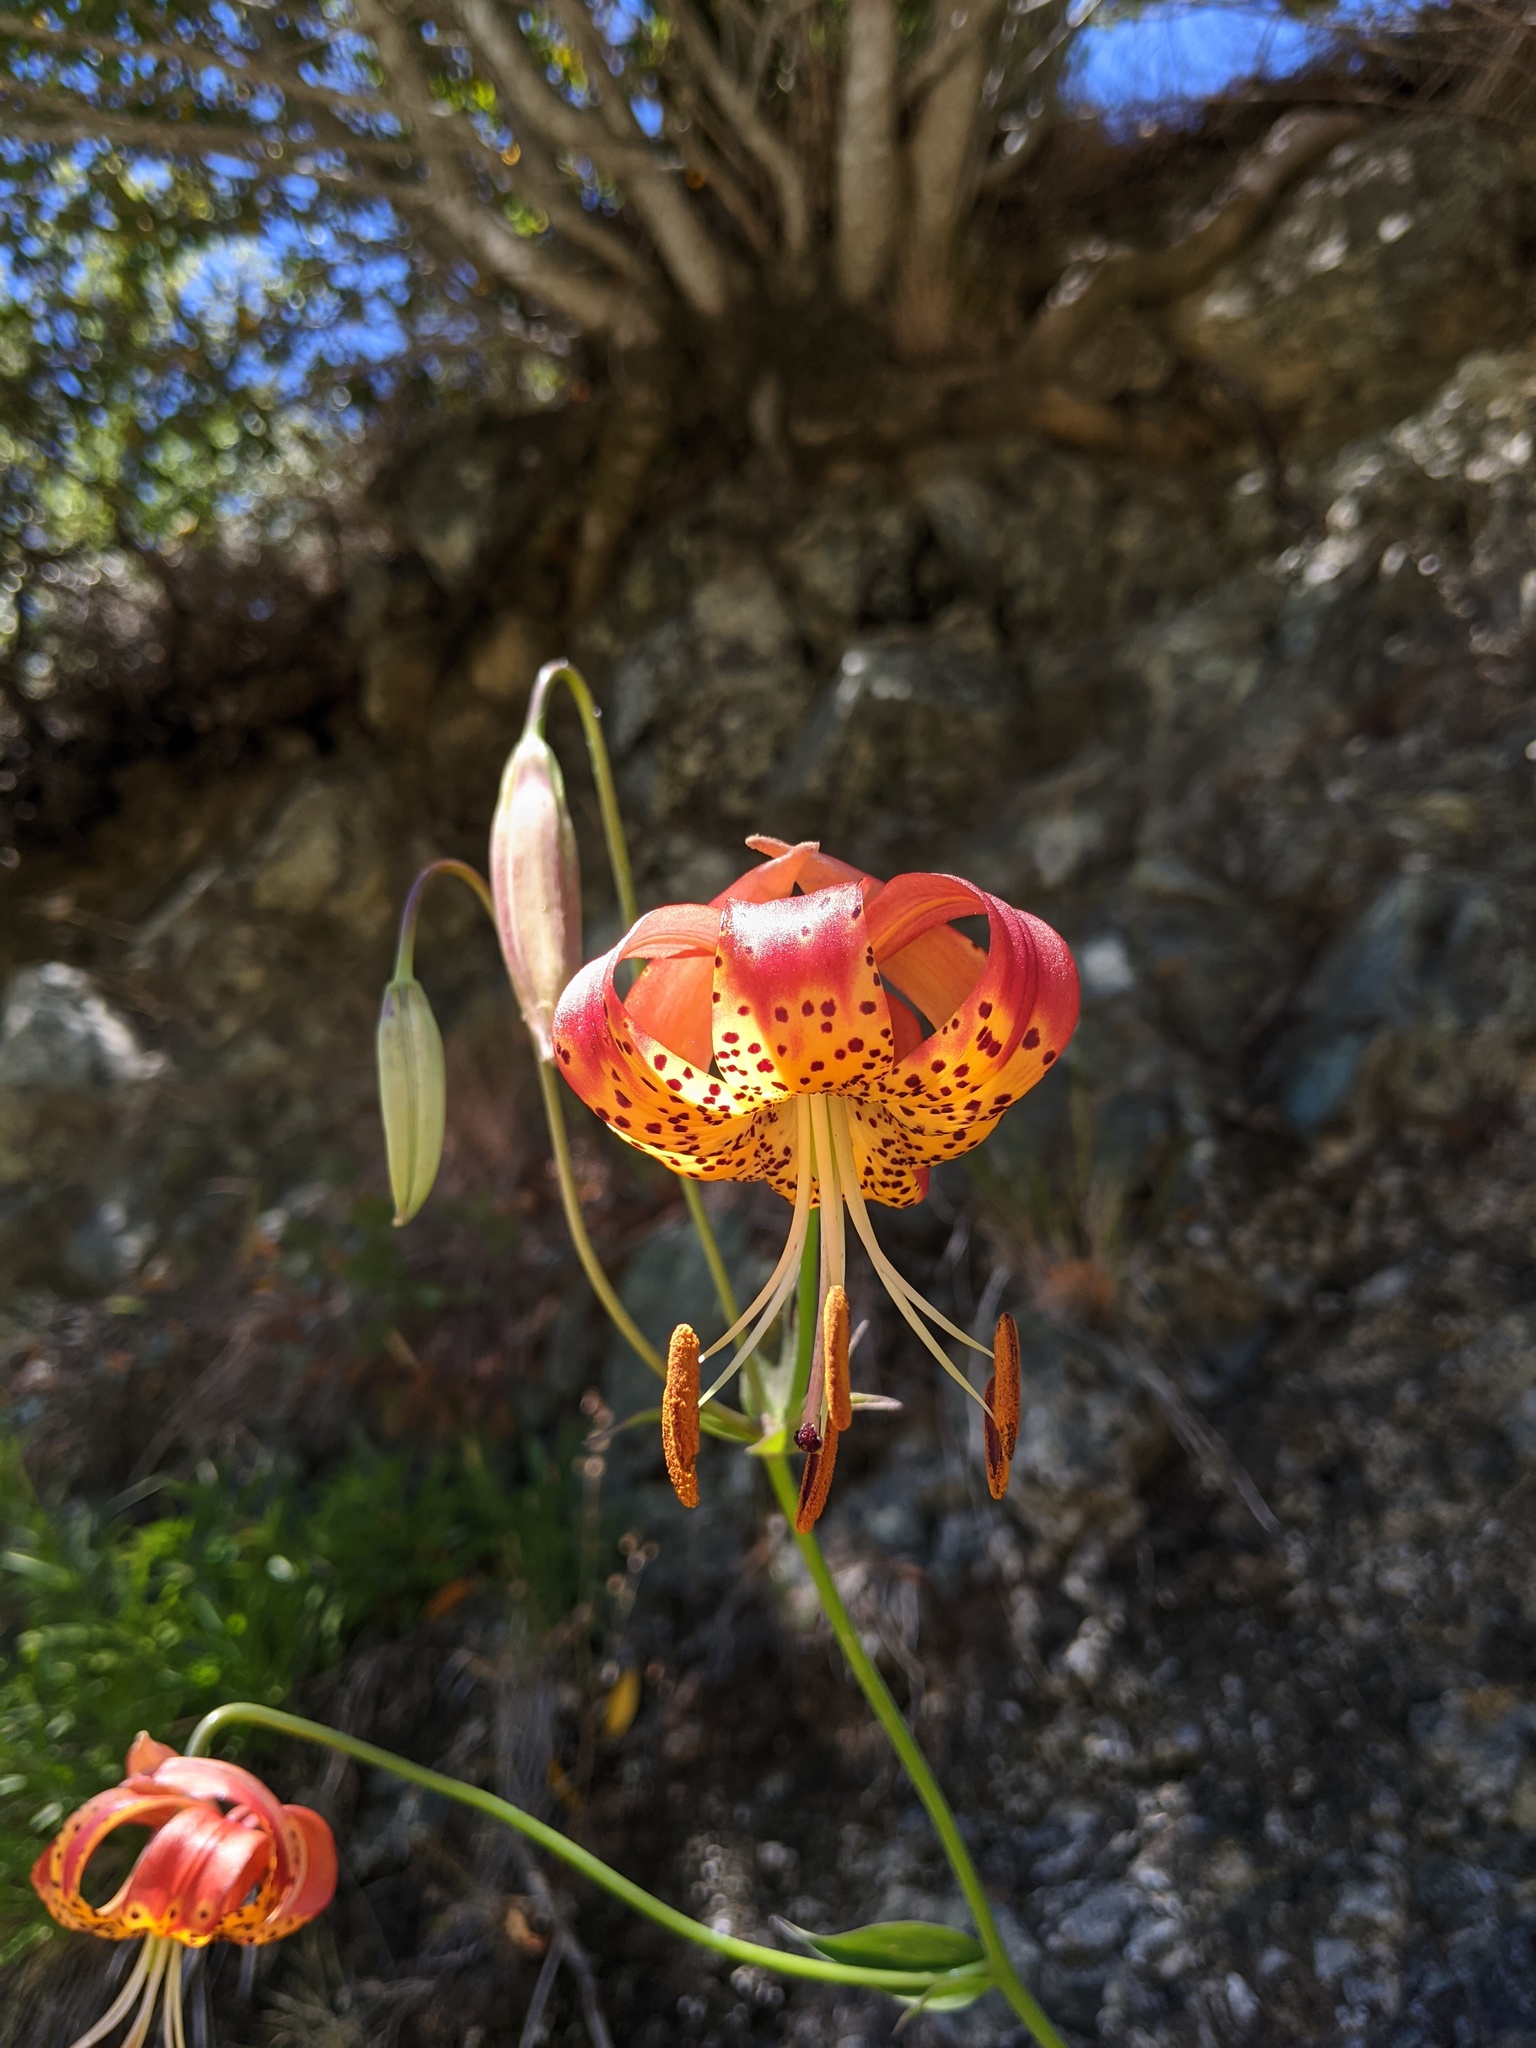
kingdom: Plantae
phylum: Tracheophyta
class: Liliopsida
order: Liliales
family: Liliaceae
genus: Lilium
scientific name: Lilium pardalinum
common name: Panther lily
